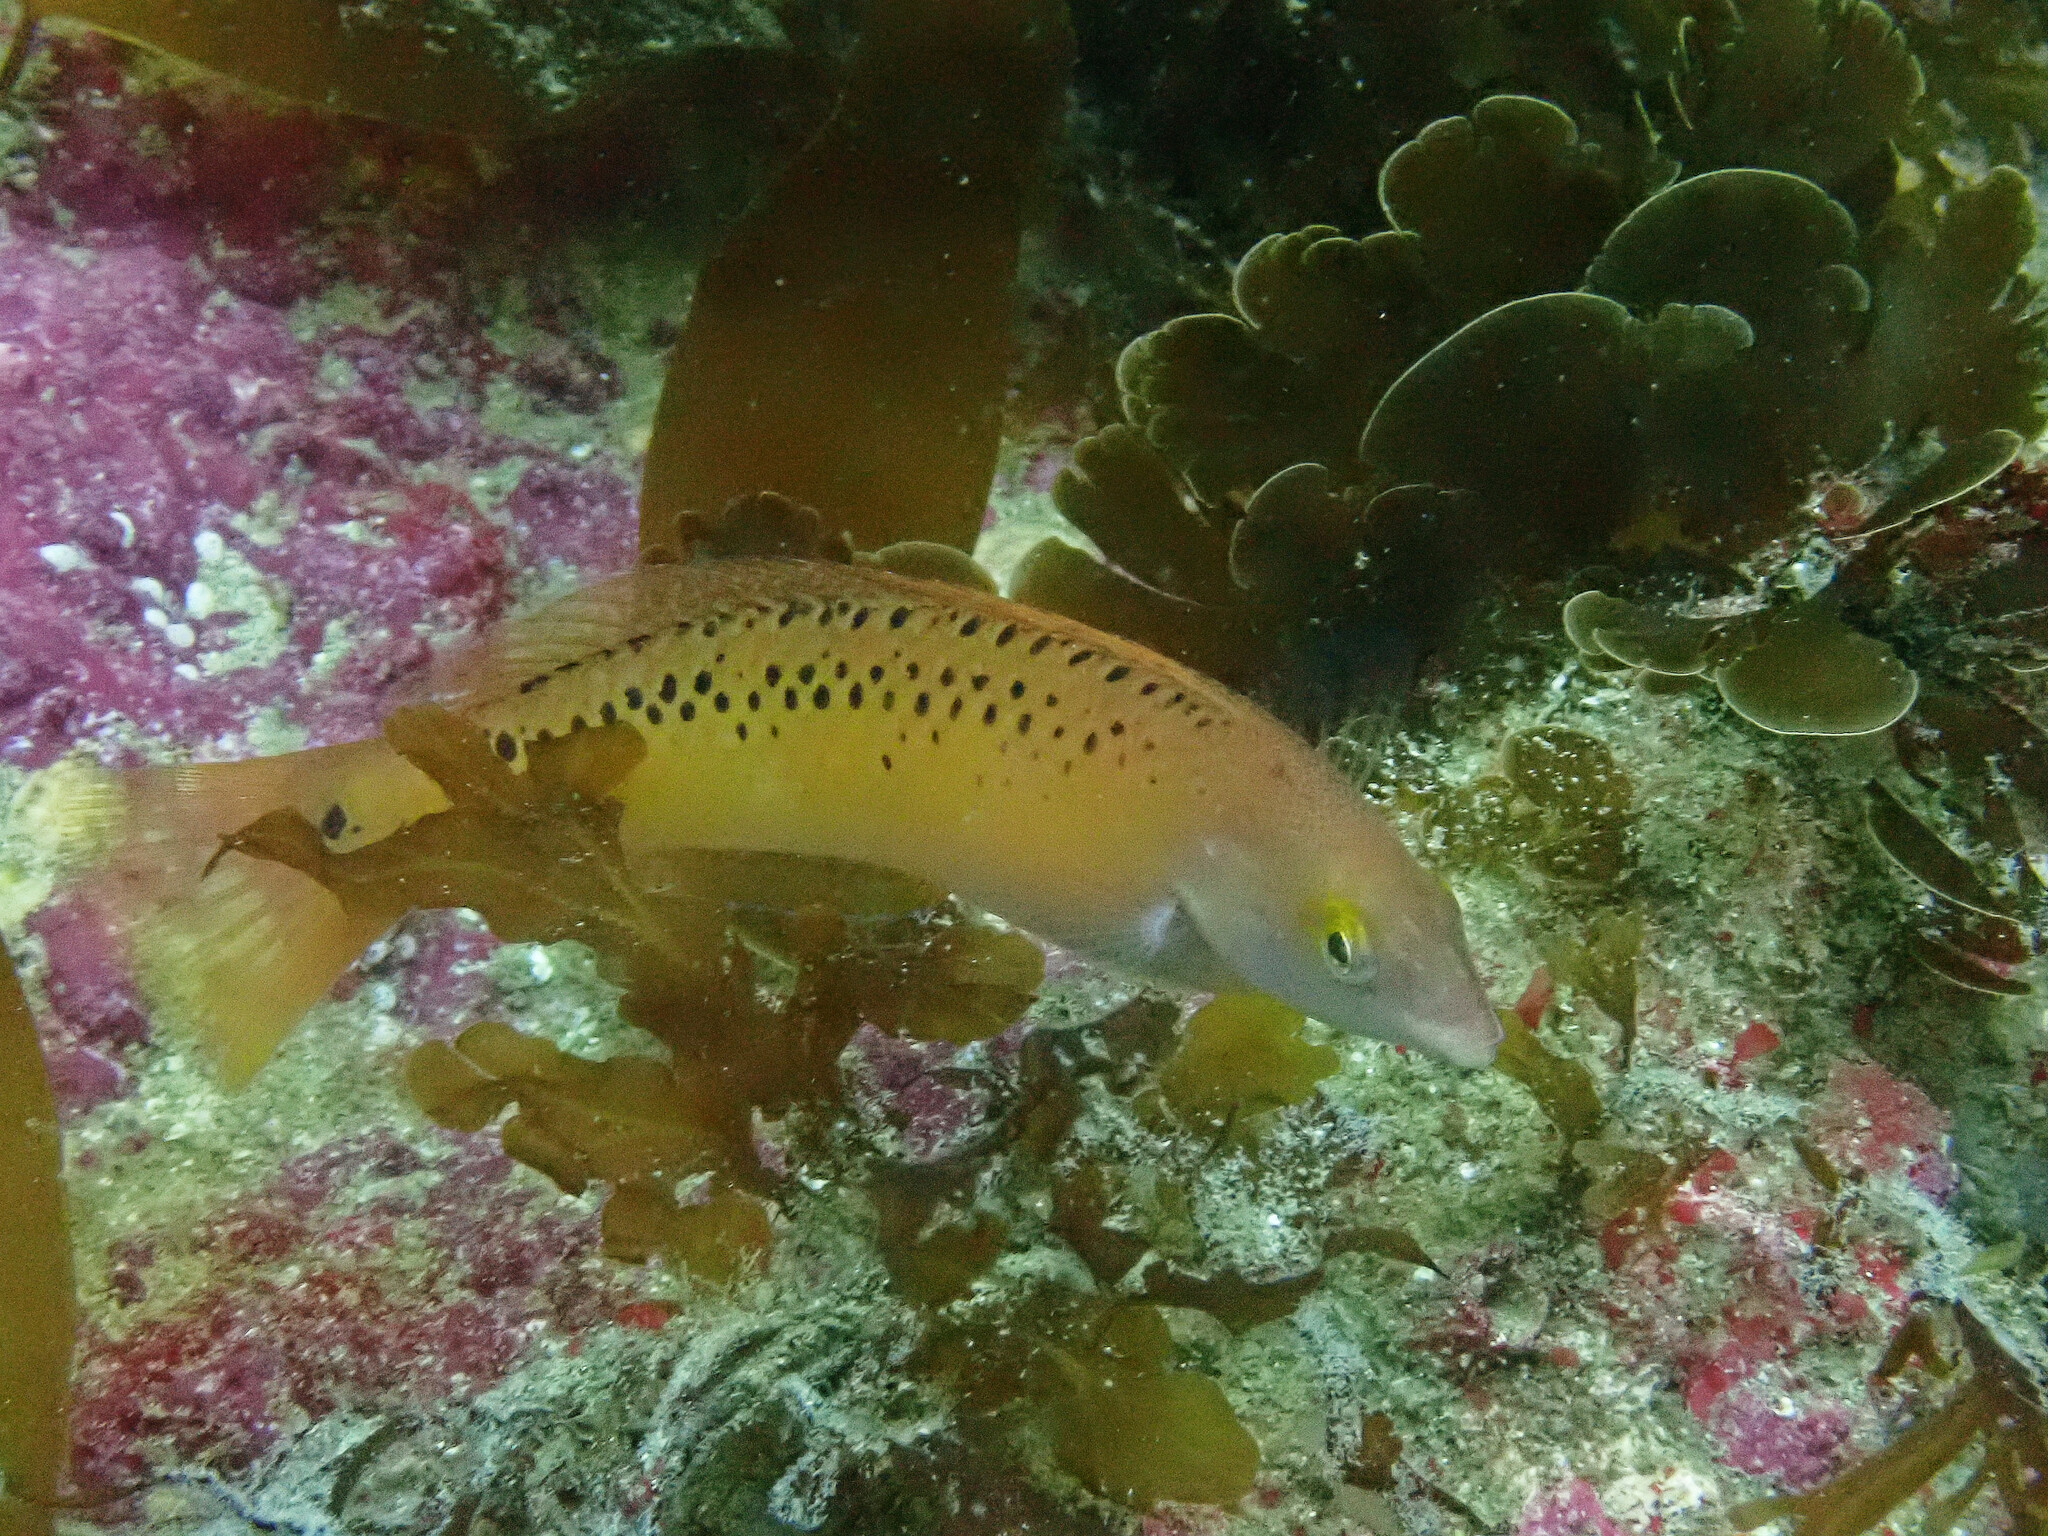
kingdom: Animalia
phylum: Chordata
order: Perciformes
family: Labridae
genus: Halichoeres
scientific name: Halichoeres semicinctus
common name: Rock wrasse
